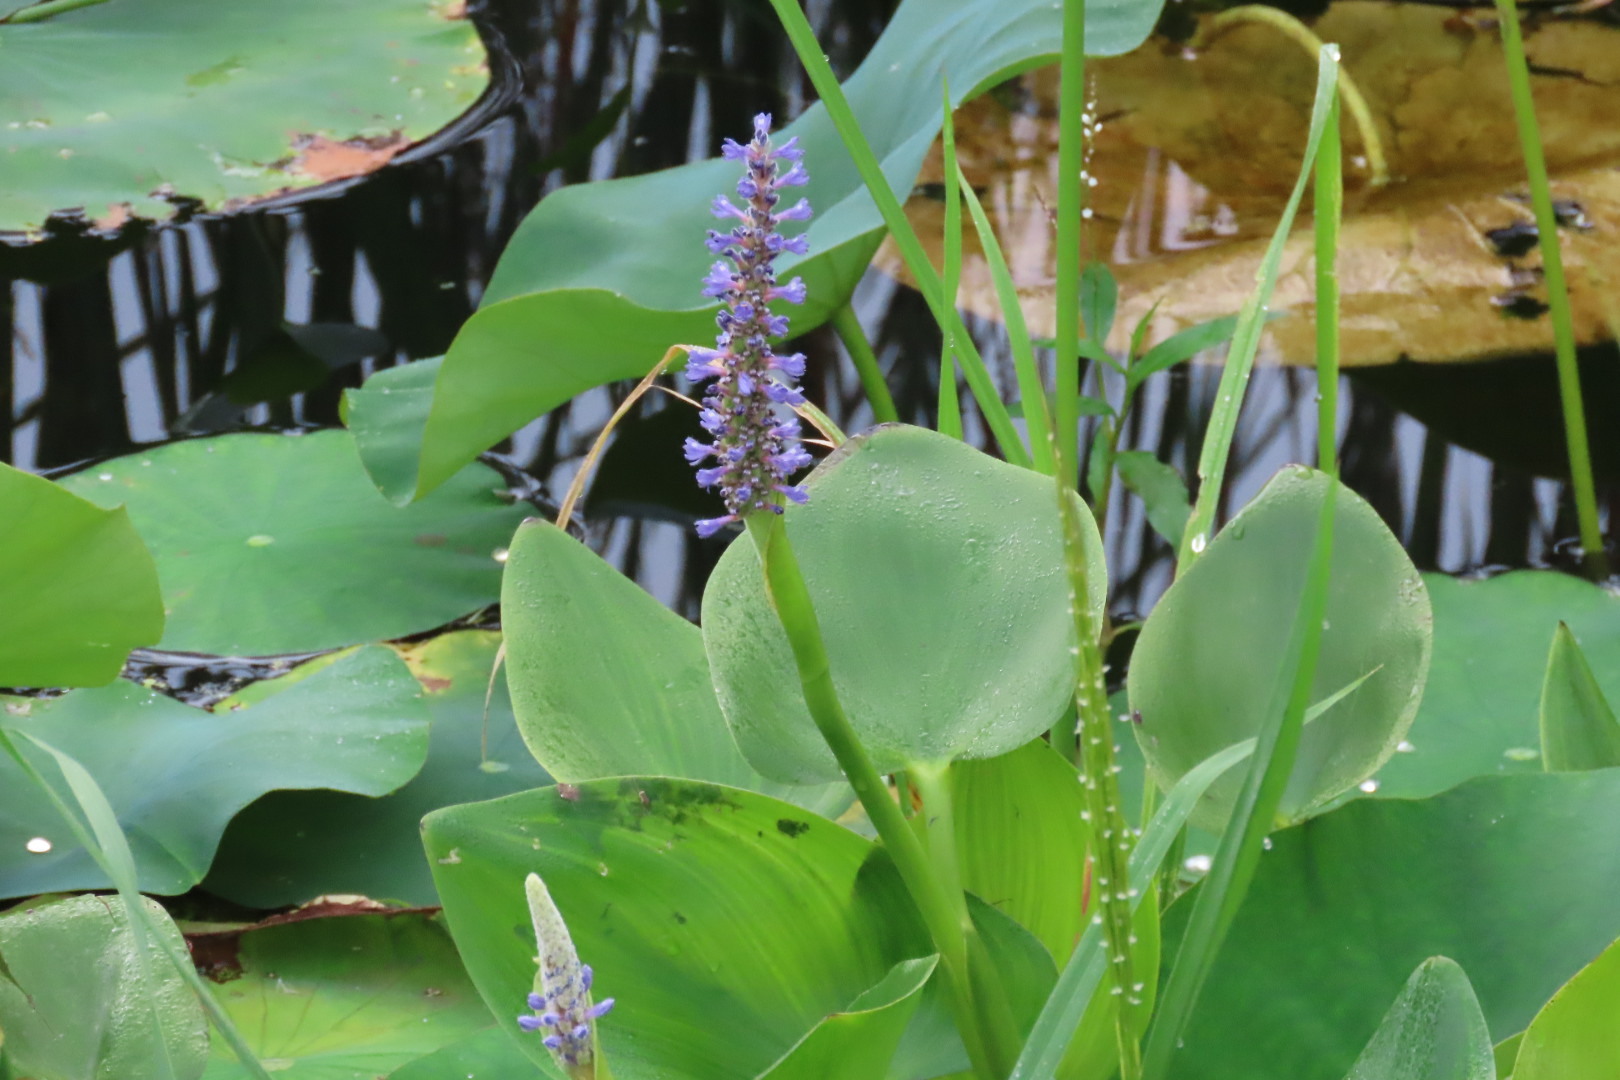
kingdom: Plantae
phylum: Tracheophyta
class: Liliopsida
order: Commelinales
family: Pontederiaceae
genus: Pontederia
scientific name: Pontederia cordata
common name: Pickerelweed
